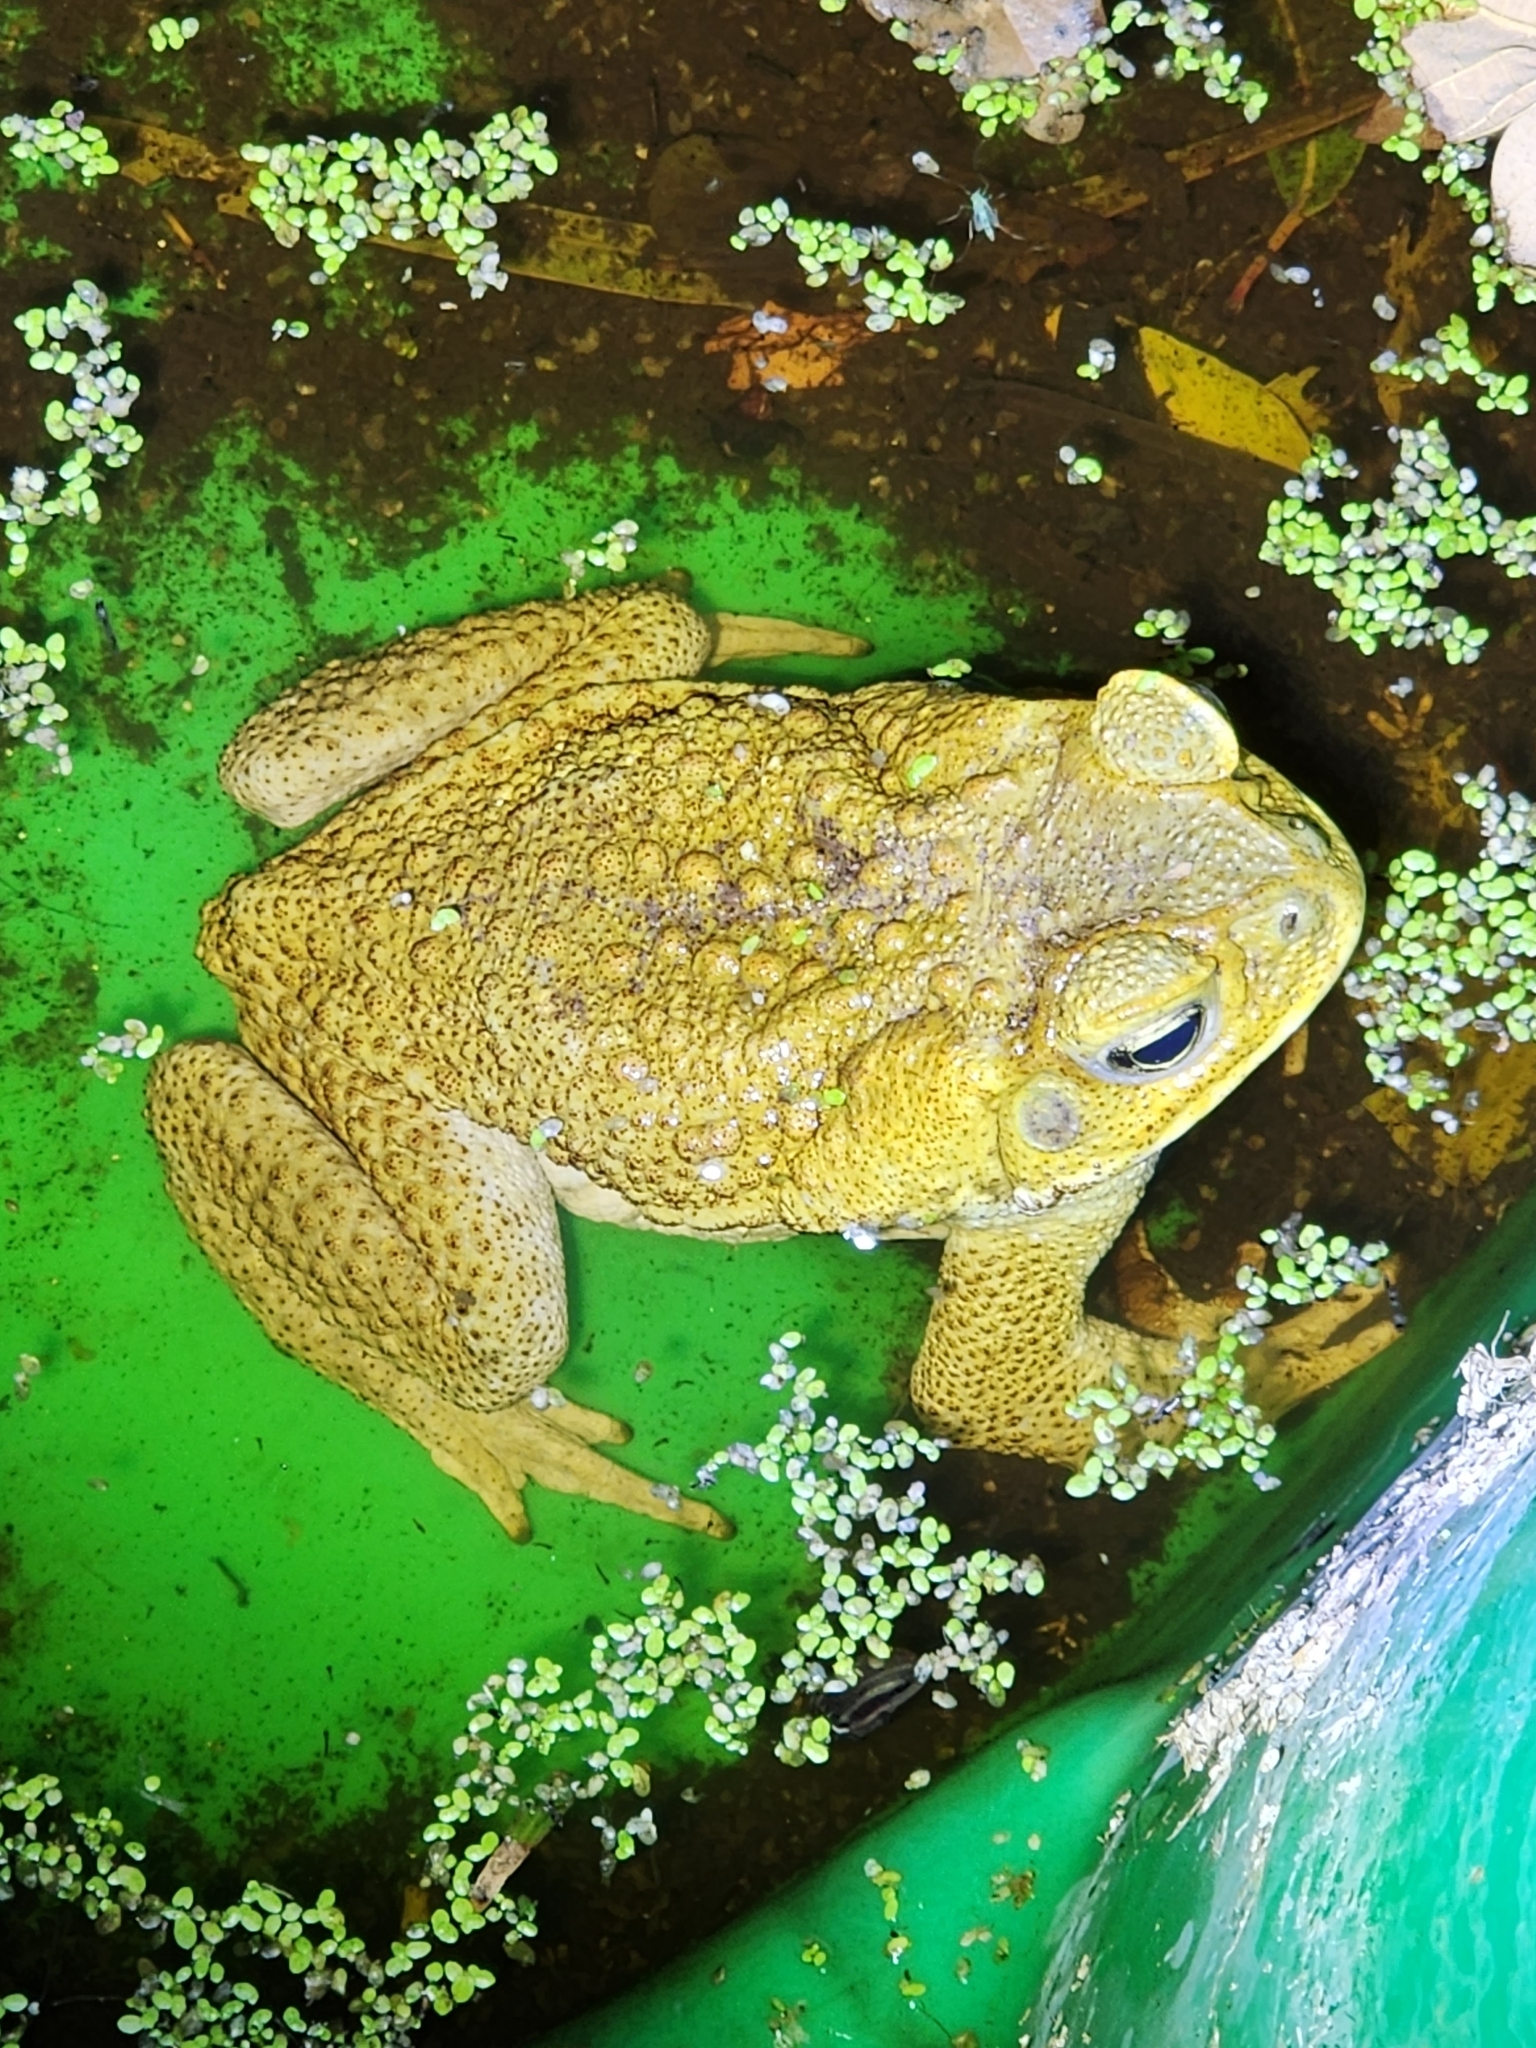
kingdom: Animalia
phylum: Chordata
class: Amphibia
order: Anura
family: Bufonidae
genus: Rhinella
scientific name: Rhinella marina
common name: Cane toad
